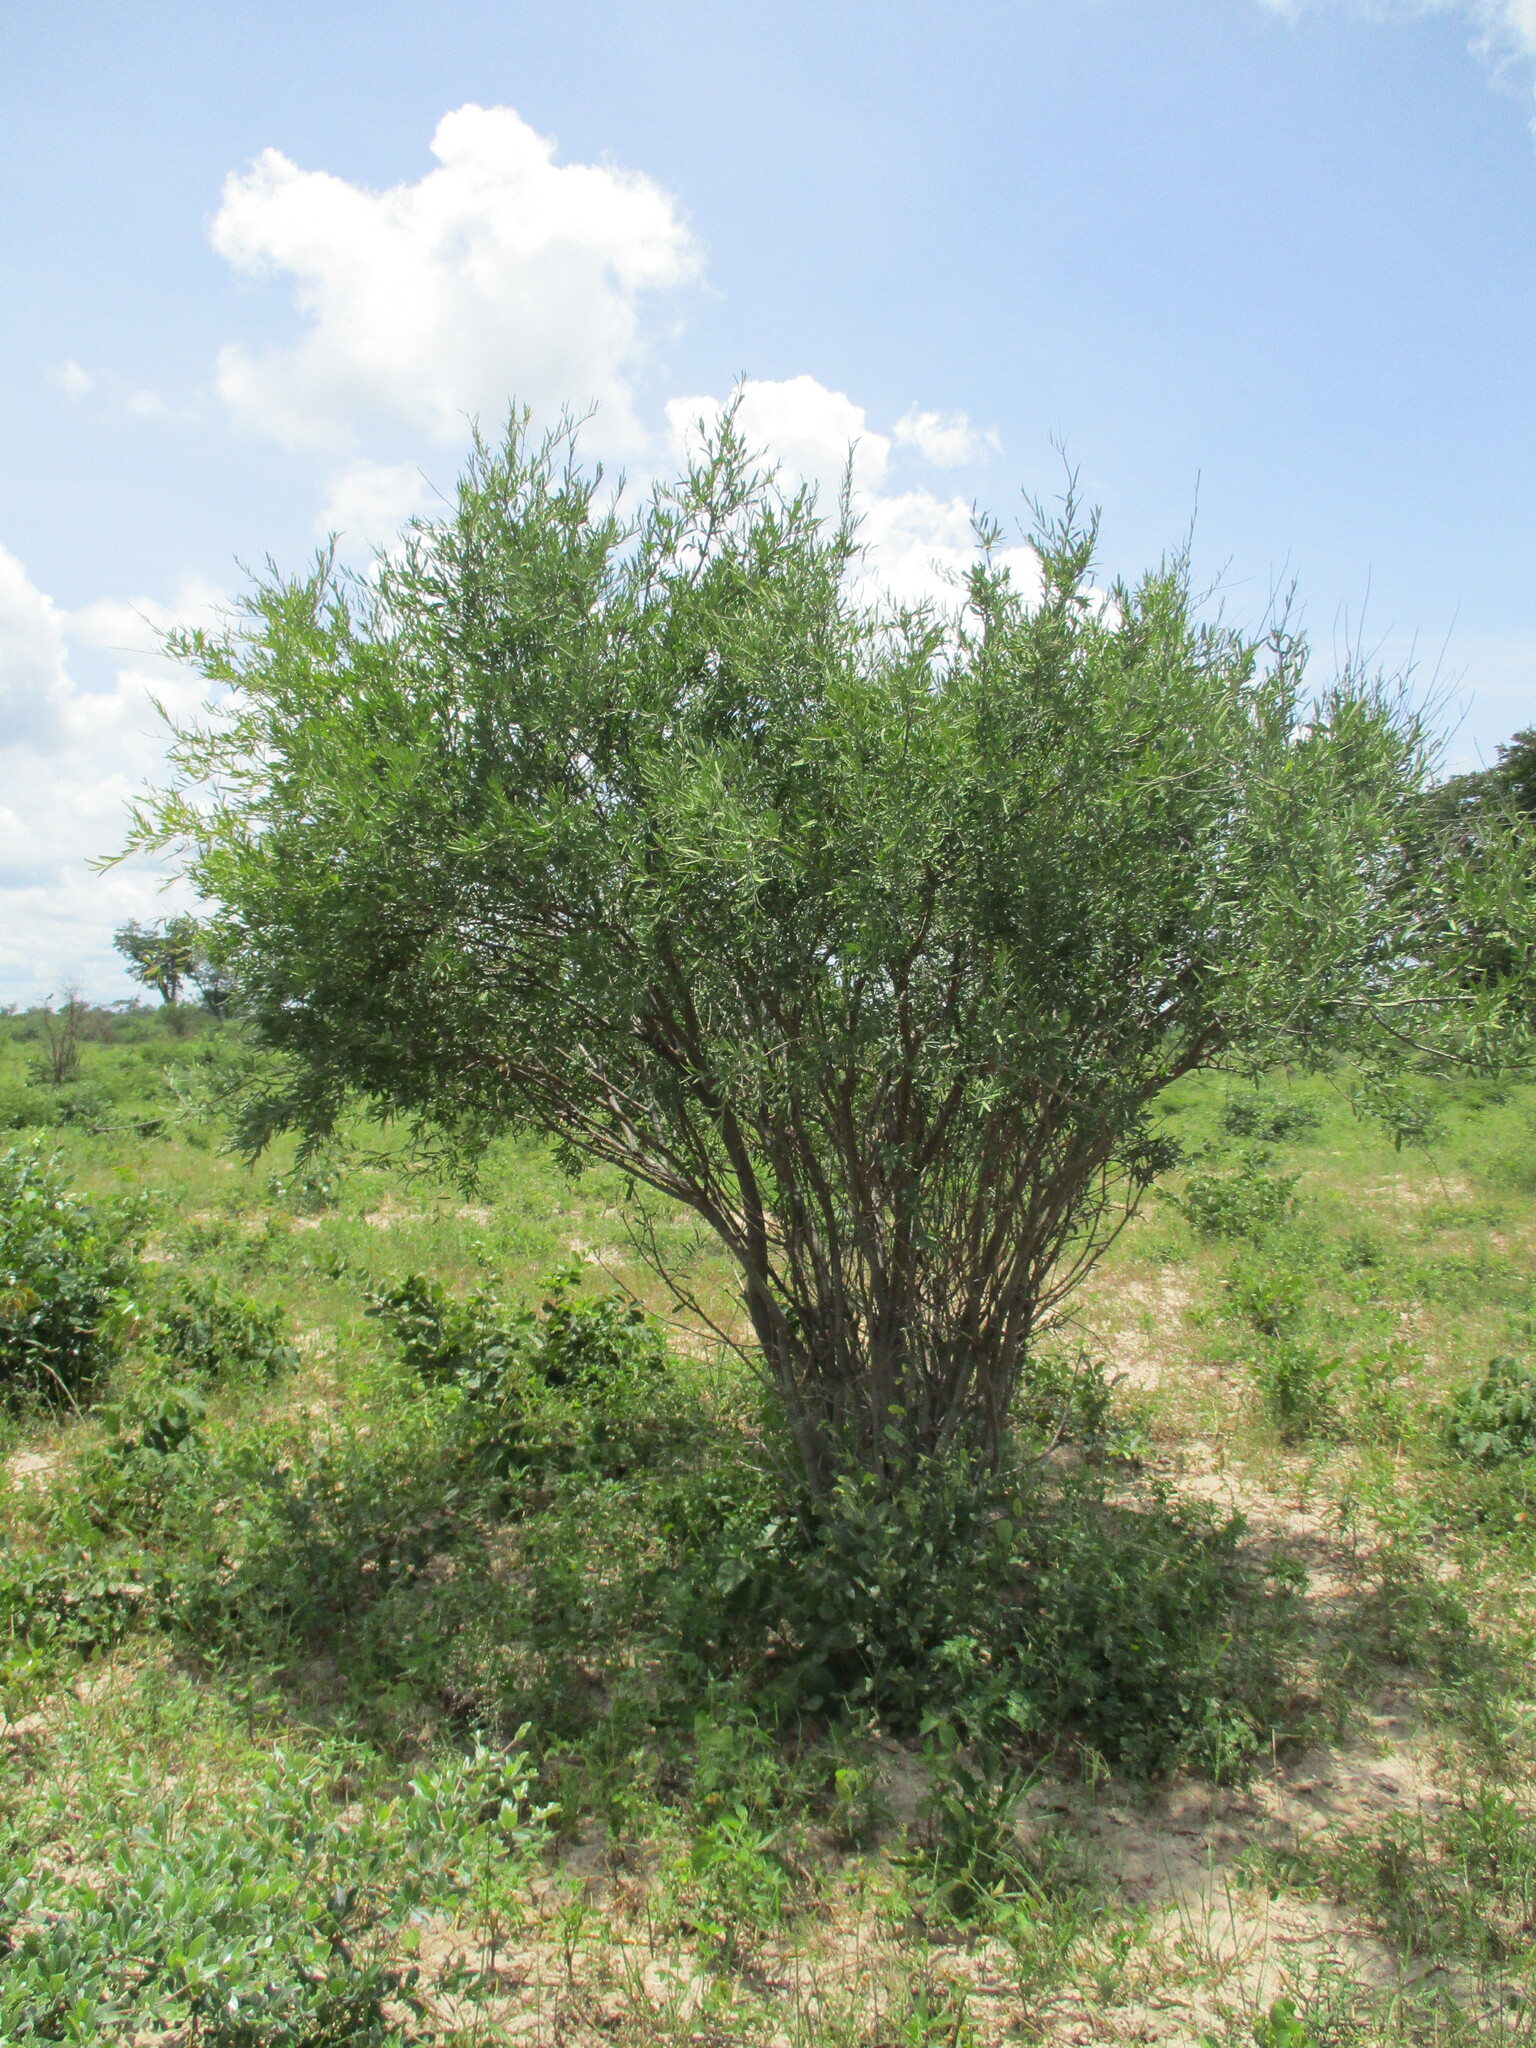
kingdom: Plantae
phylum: Tracheophyta
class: Magnoliopsida
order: Brassicales
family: Capparaceae
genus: Boscia
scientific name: Boscia albitrunca
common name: Caper bush
